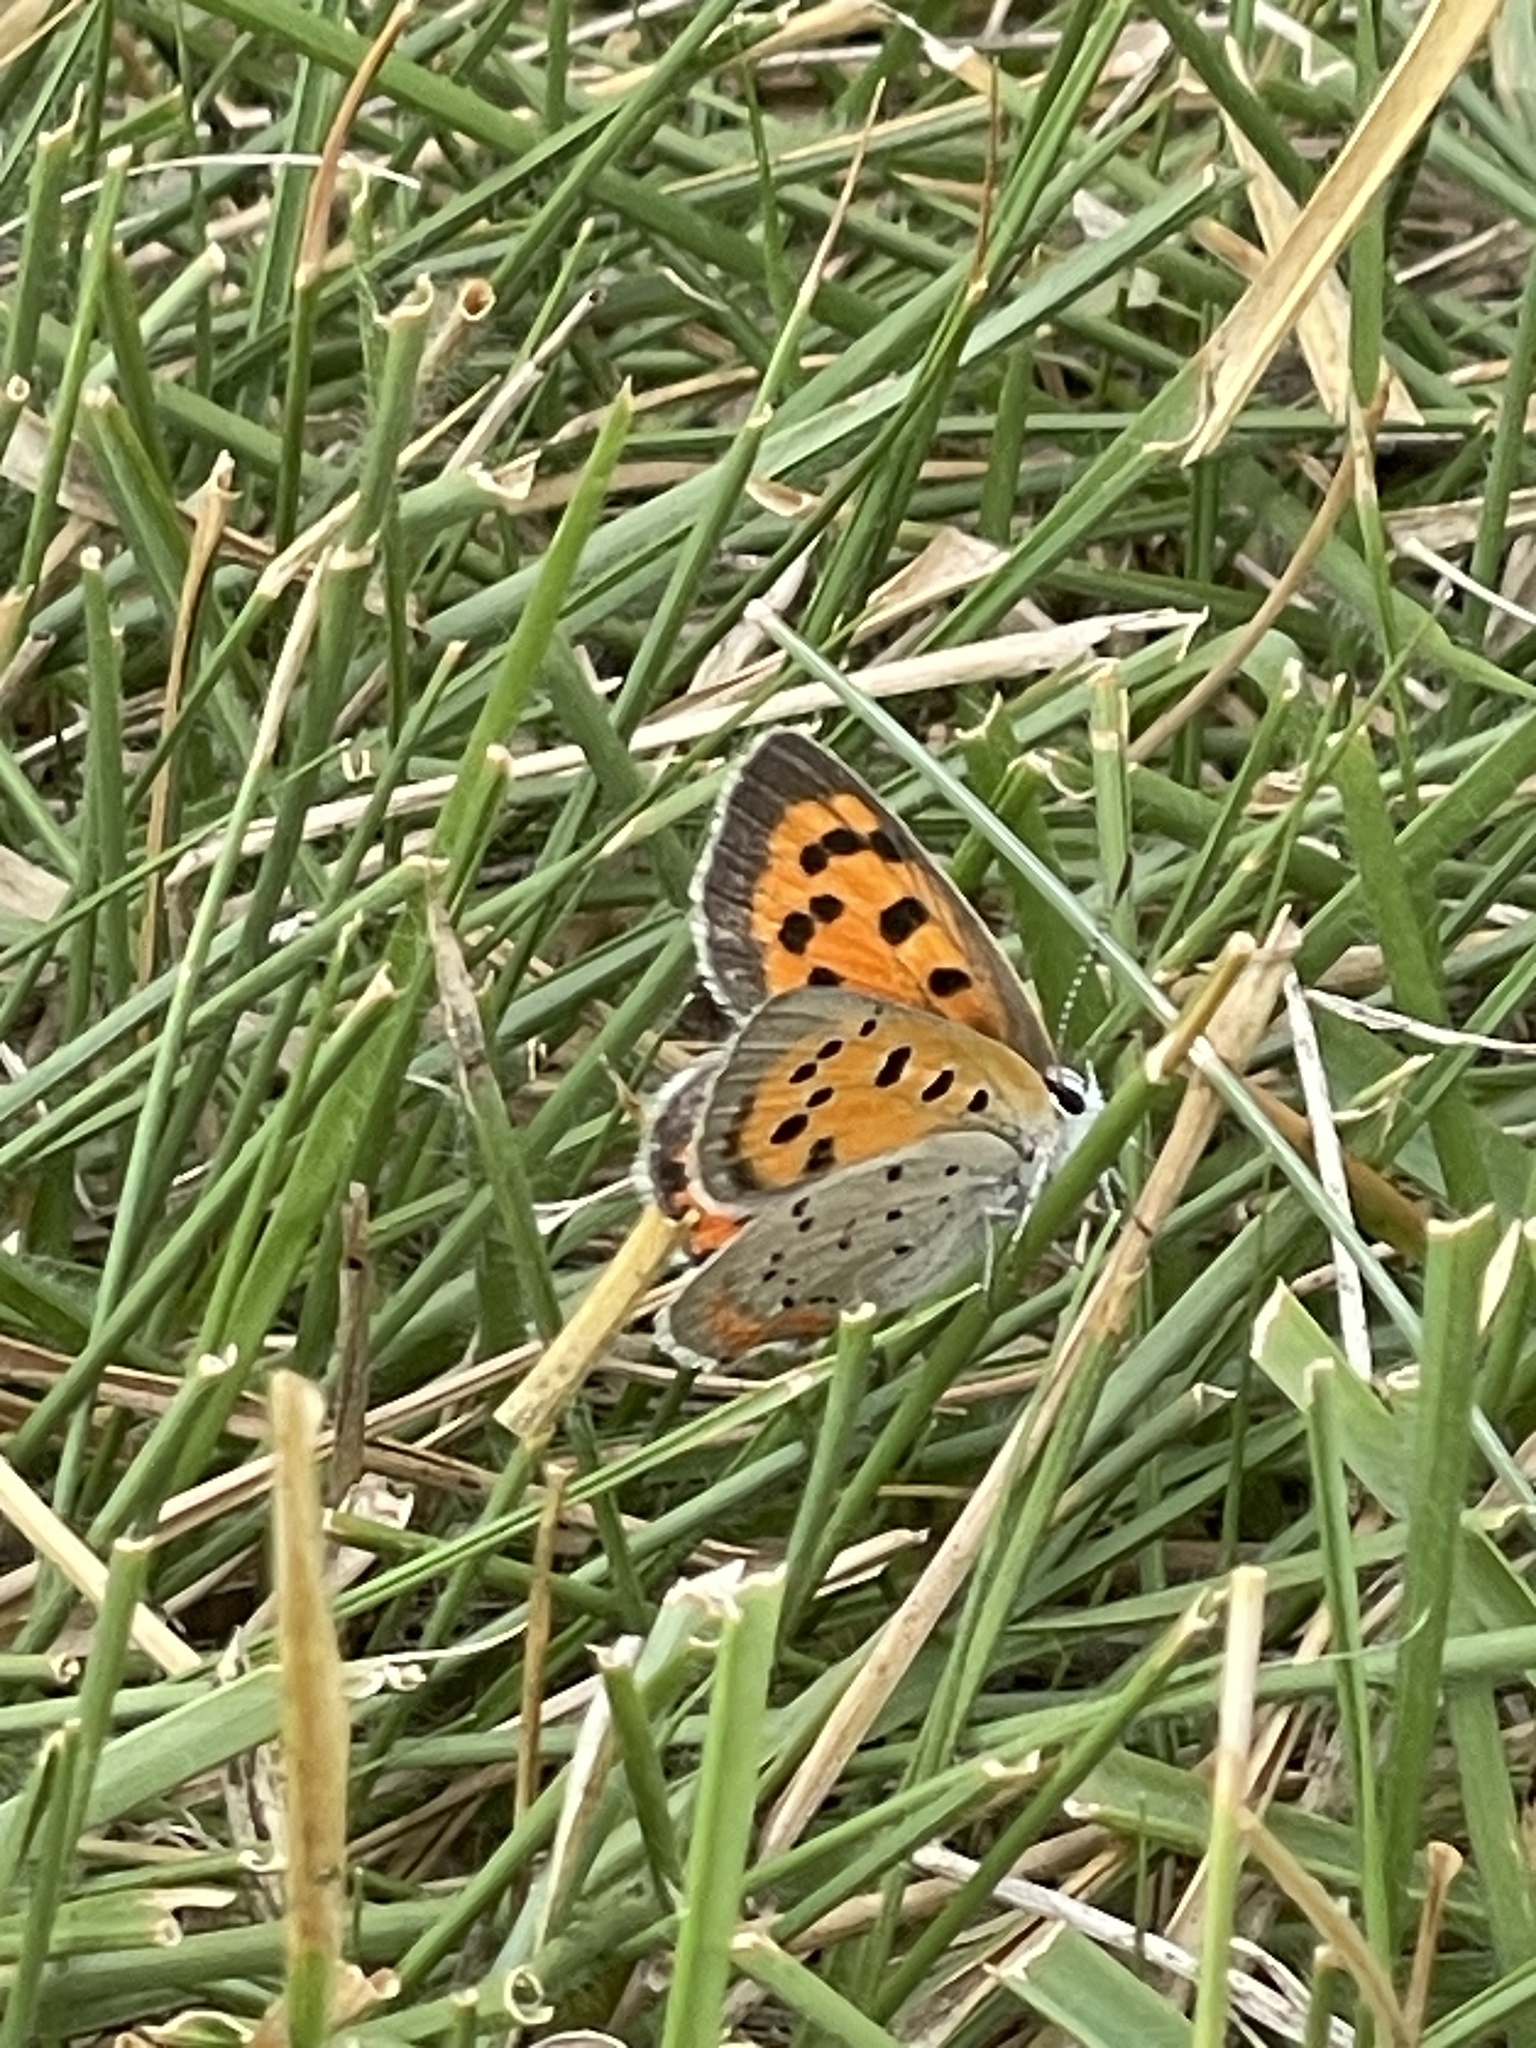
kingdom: Animalia
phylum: Arthropoda
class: Insecta
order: Lepidoptera
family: Lycaenidae
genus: Lycaena
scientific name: Lycaena hypophlaeas
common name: American copper
